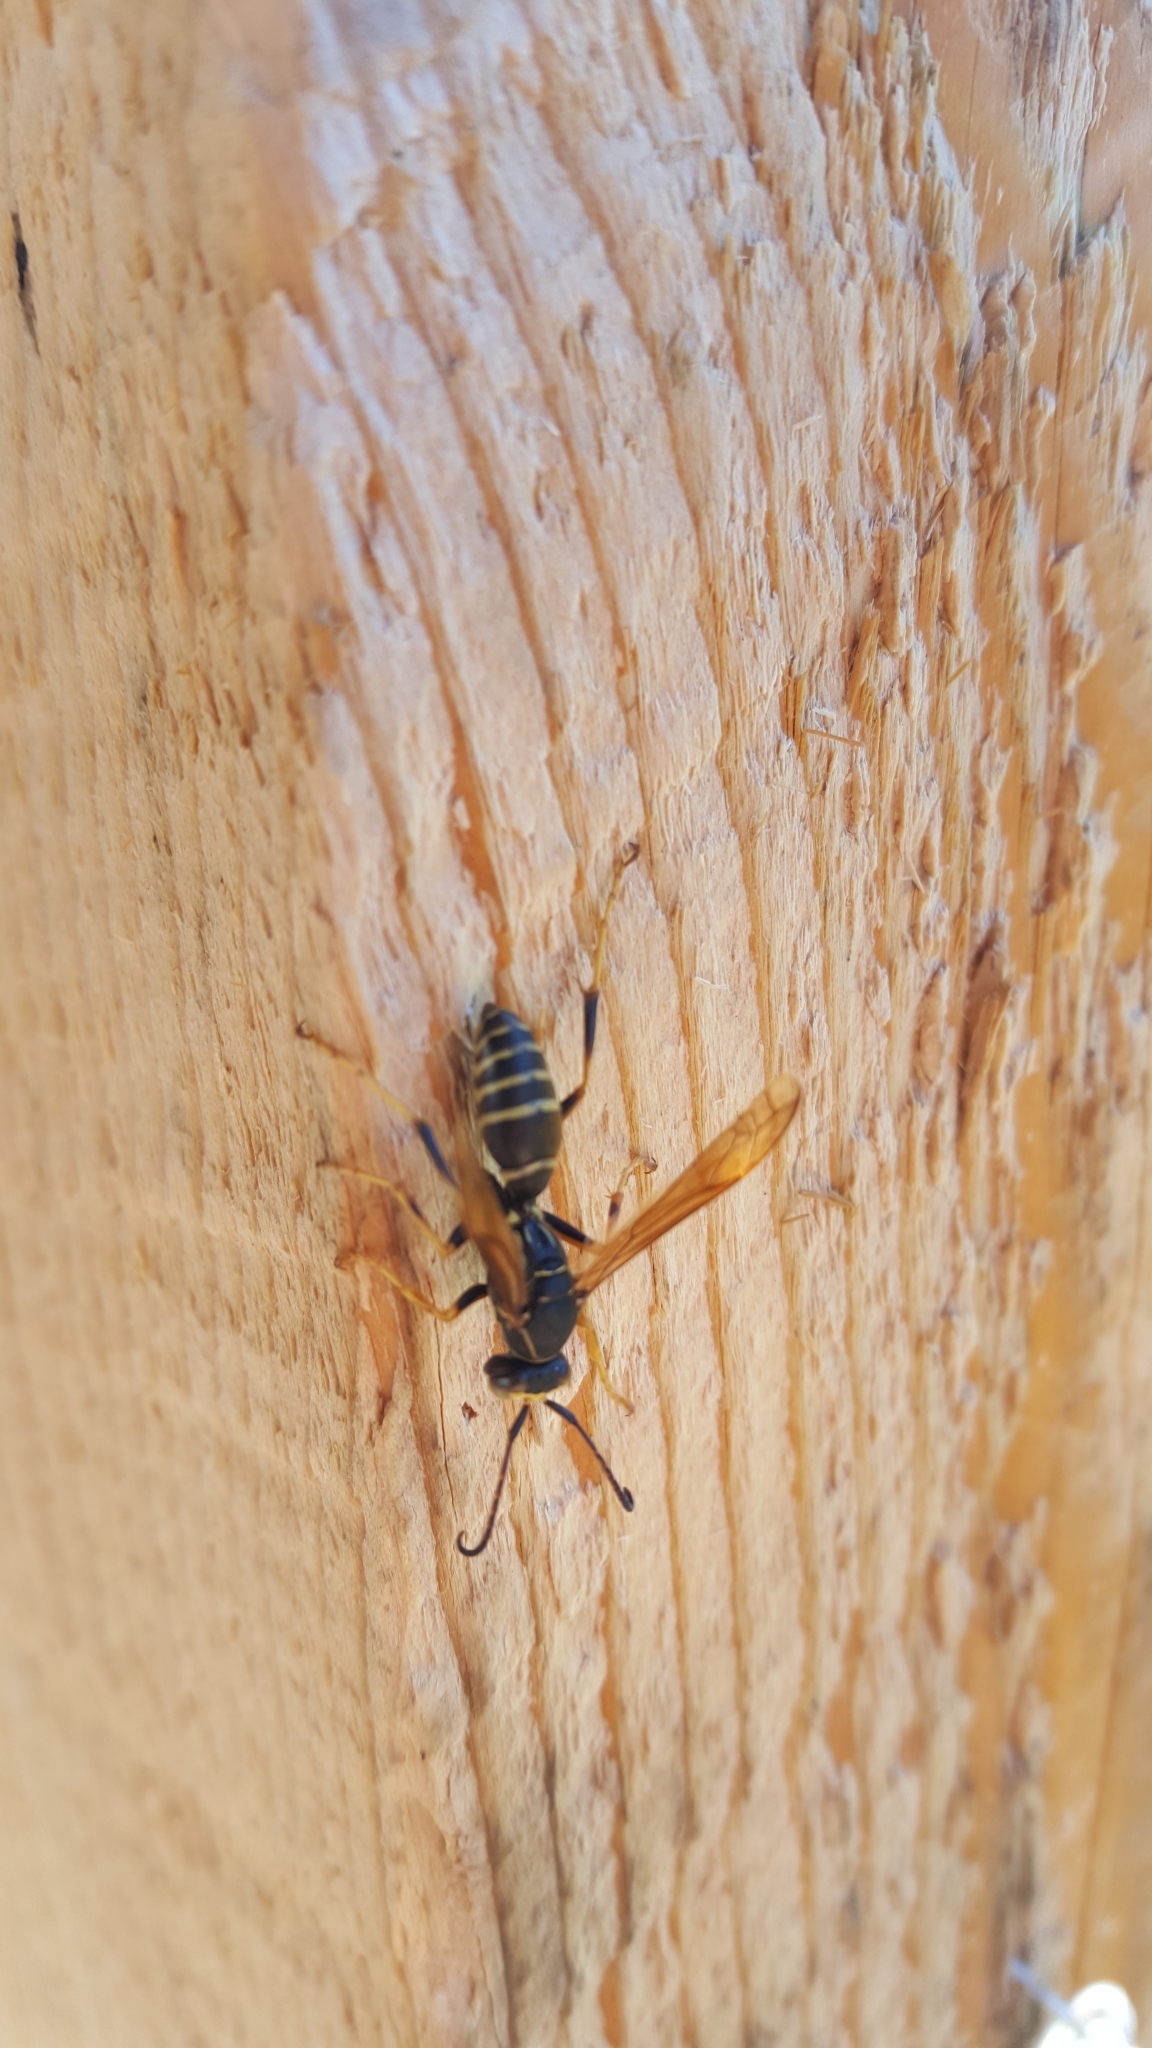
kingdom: Animalia
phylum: Arthropoda
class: Insecta
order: Hymenoptera
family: Eumenidae
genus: Polistes
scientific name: Polistes fuscatus
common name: Dark paper wasp
